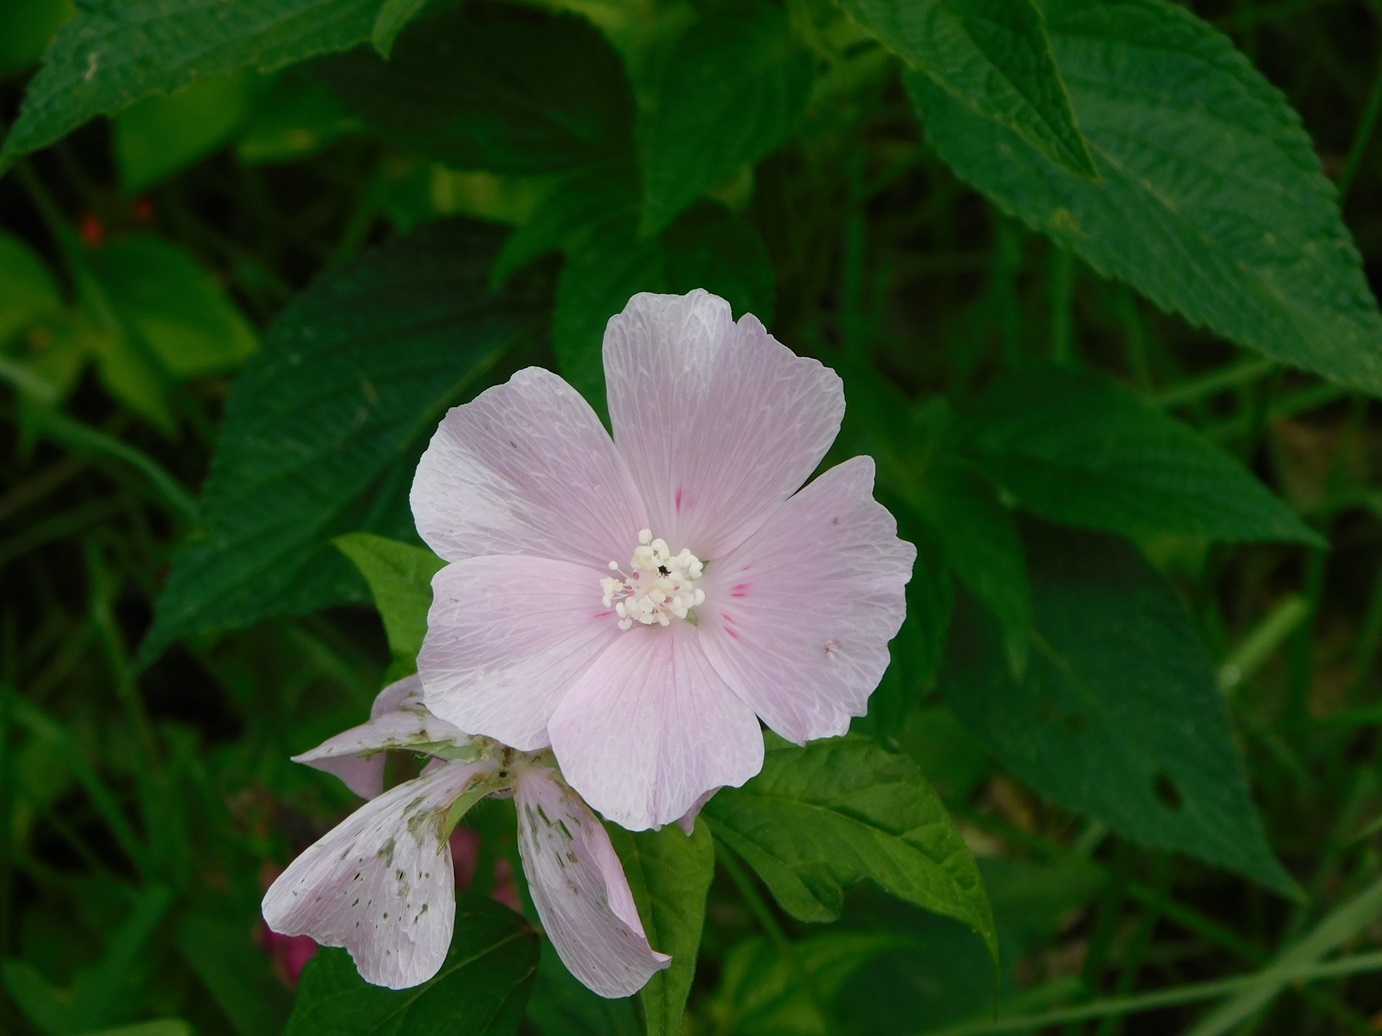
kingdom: Plantae
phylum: Tracheophyta
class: Magnoliopsida
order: Malvales
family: Malvaceae
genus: Anoda
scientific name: Anoda cristata
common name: Spurred anoda
